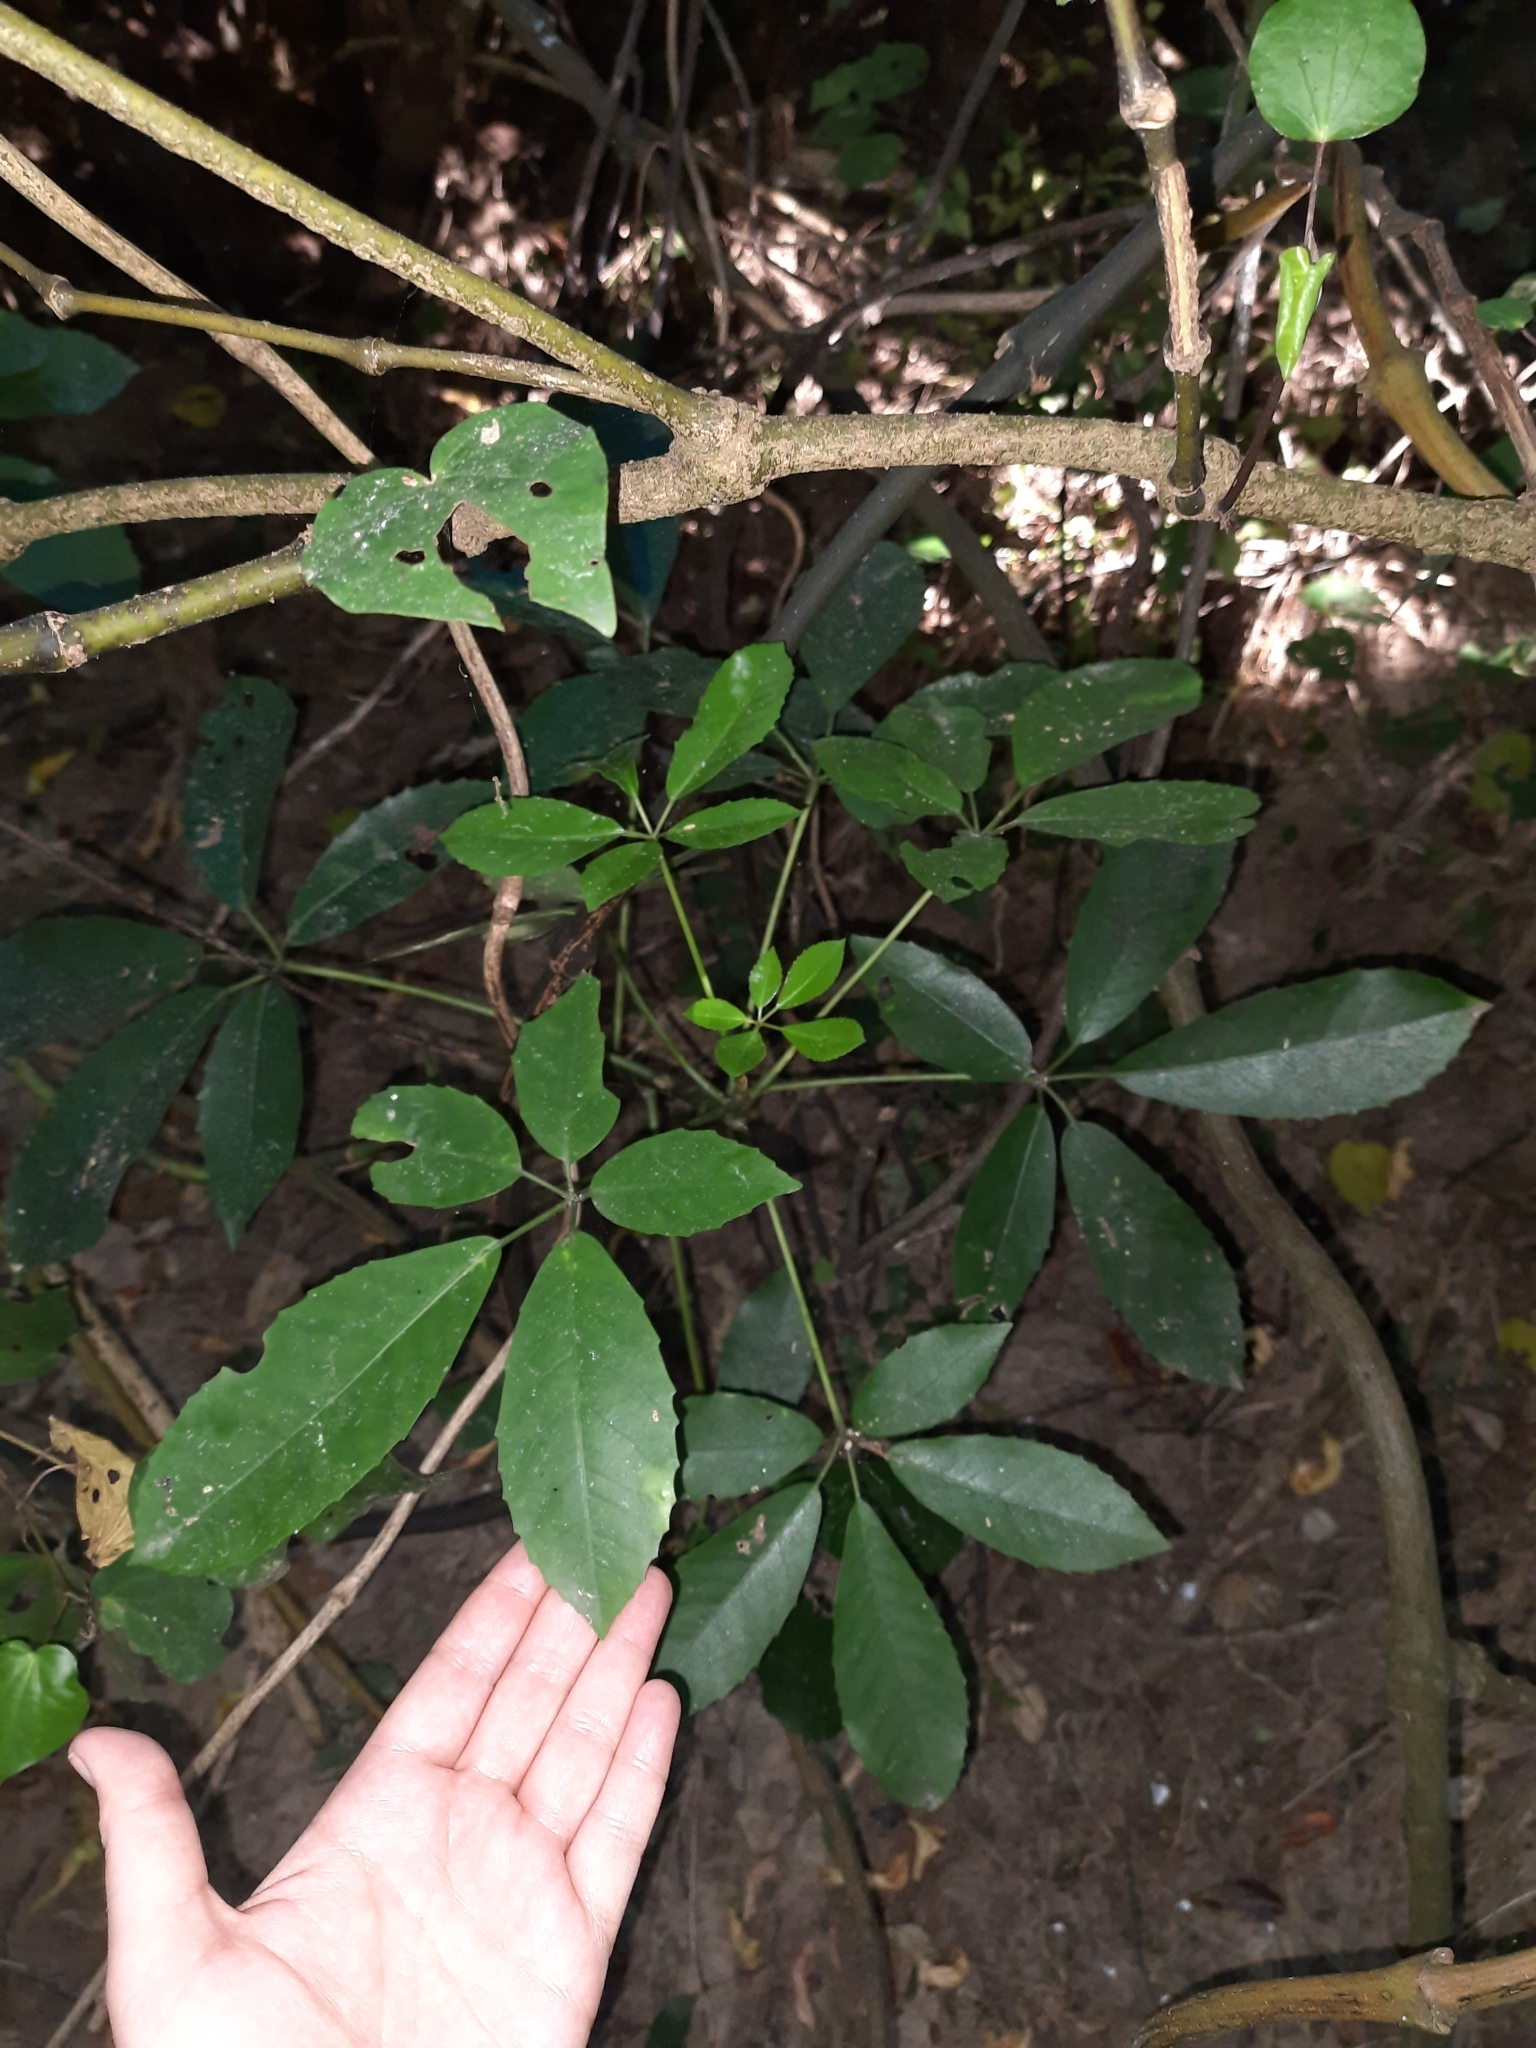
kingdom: Plantae
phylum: Tracheophyta
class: Magnoliopsida
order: Apiales
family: Araliaceae
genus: Neopanax
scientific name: Neopanax arboreus
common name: Five-fingers
